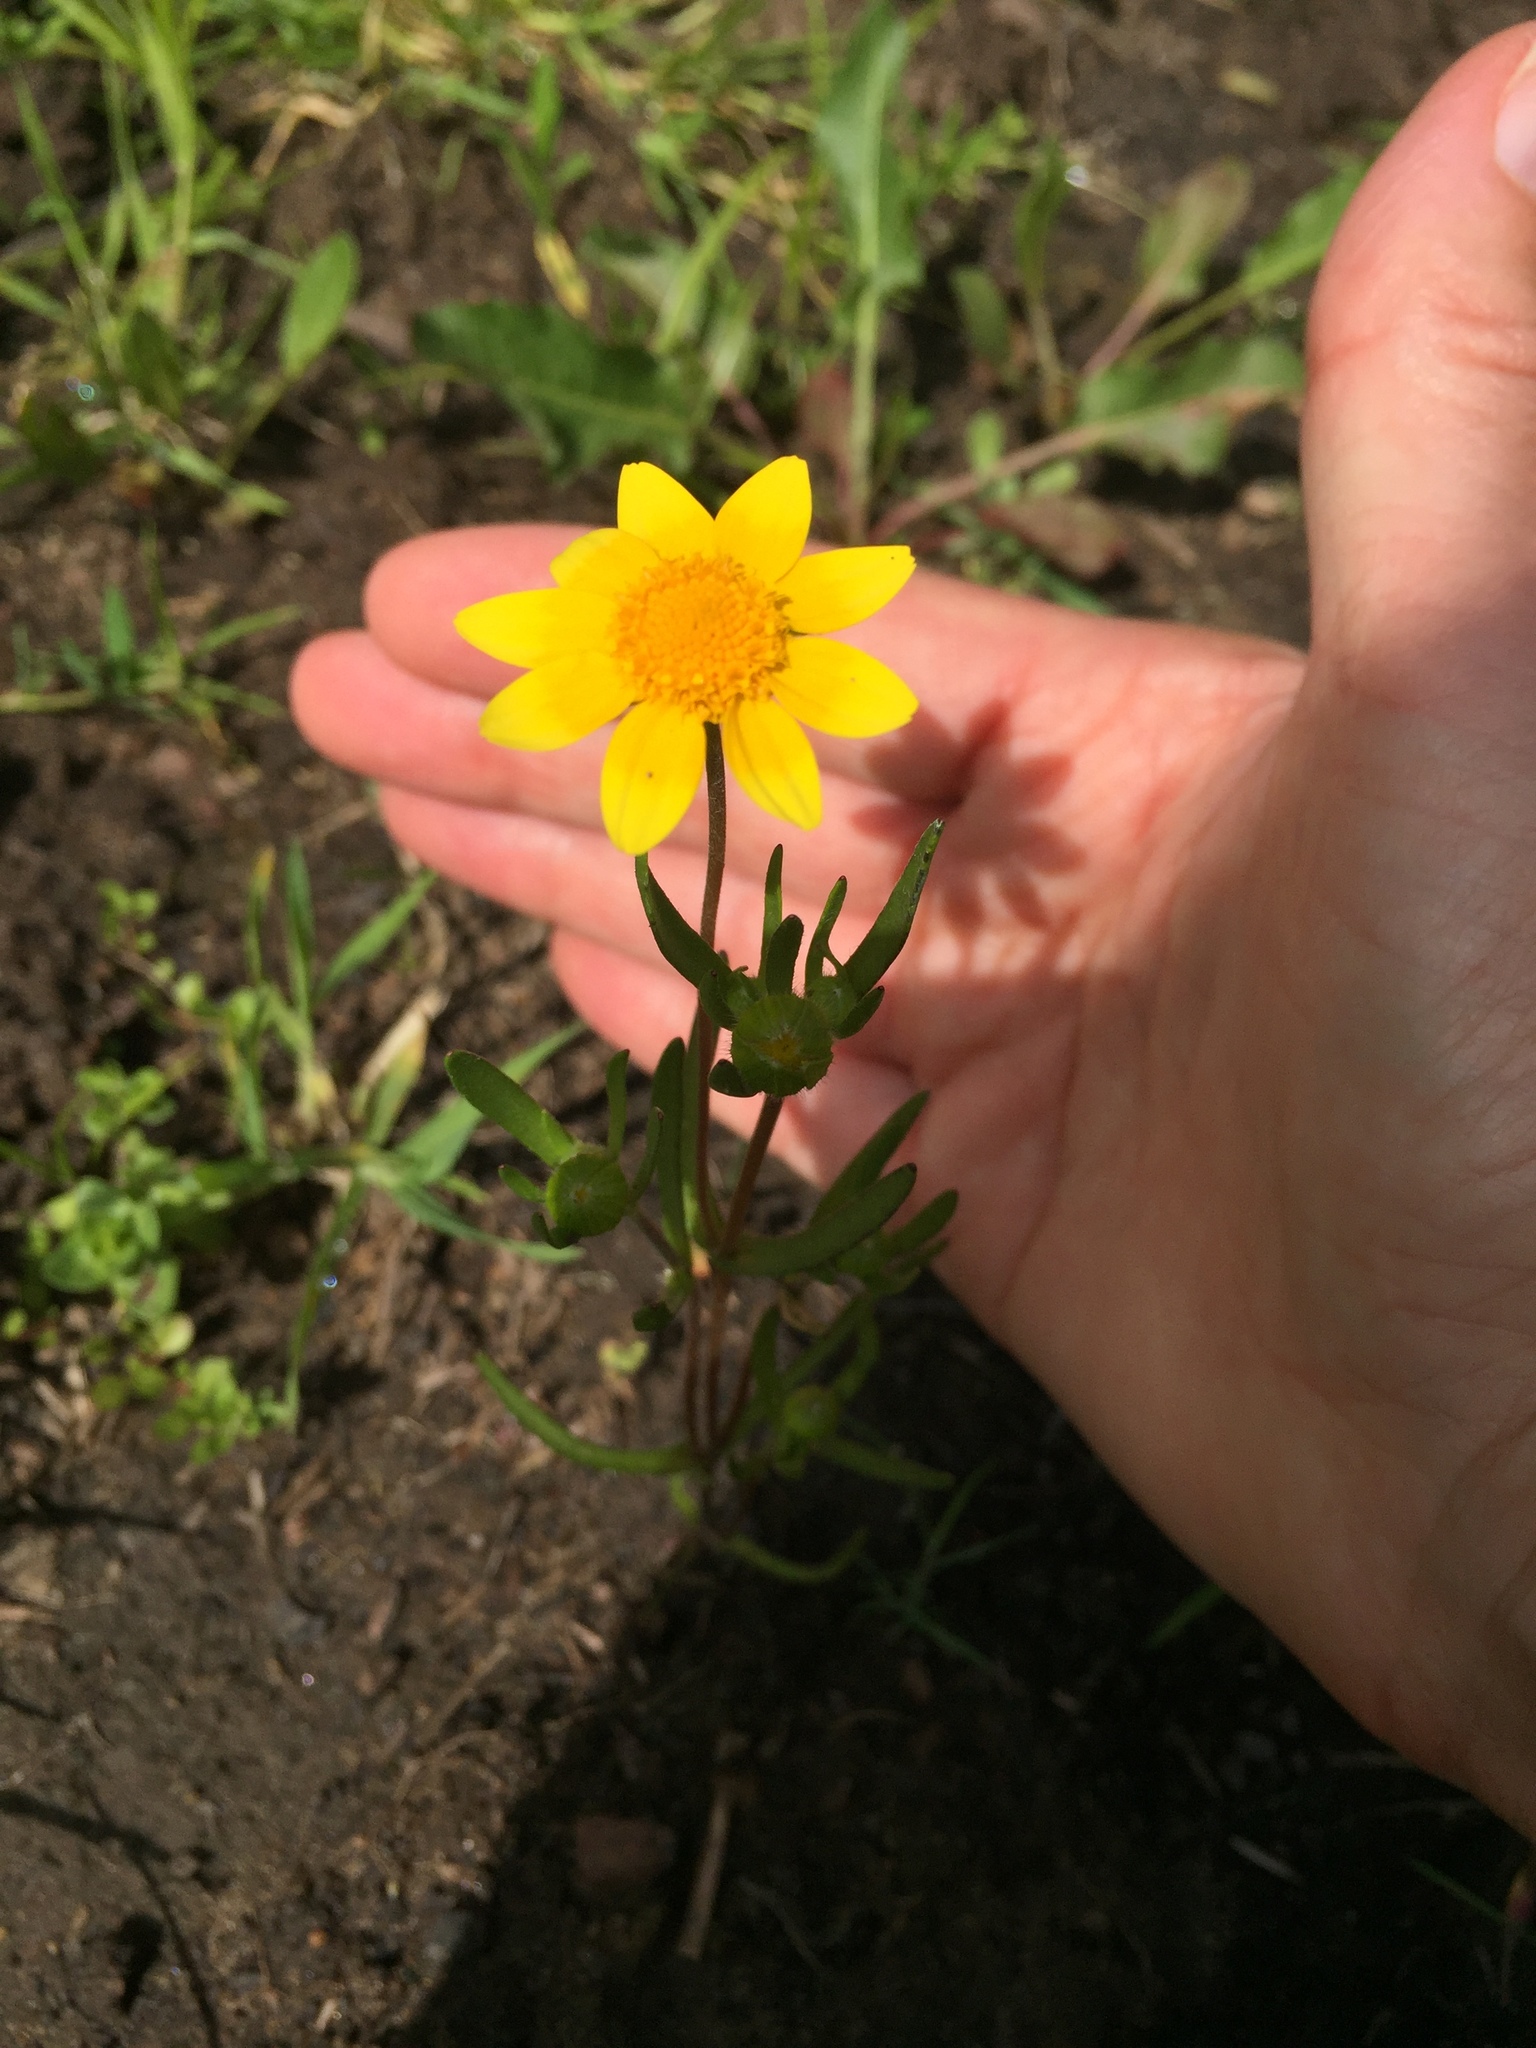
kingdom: Plantae
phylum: Tracheophyta
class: Magnoliopsida
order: Asterales
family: Asteraceae
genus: Lasthenia
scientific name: Lasthenia californica
